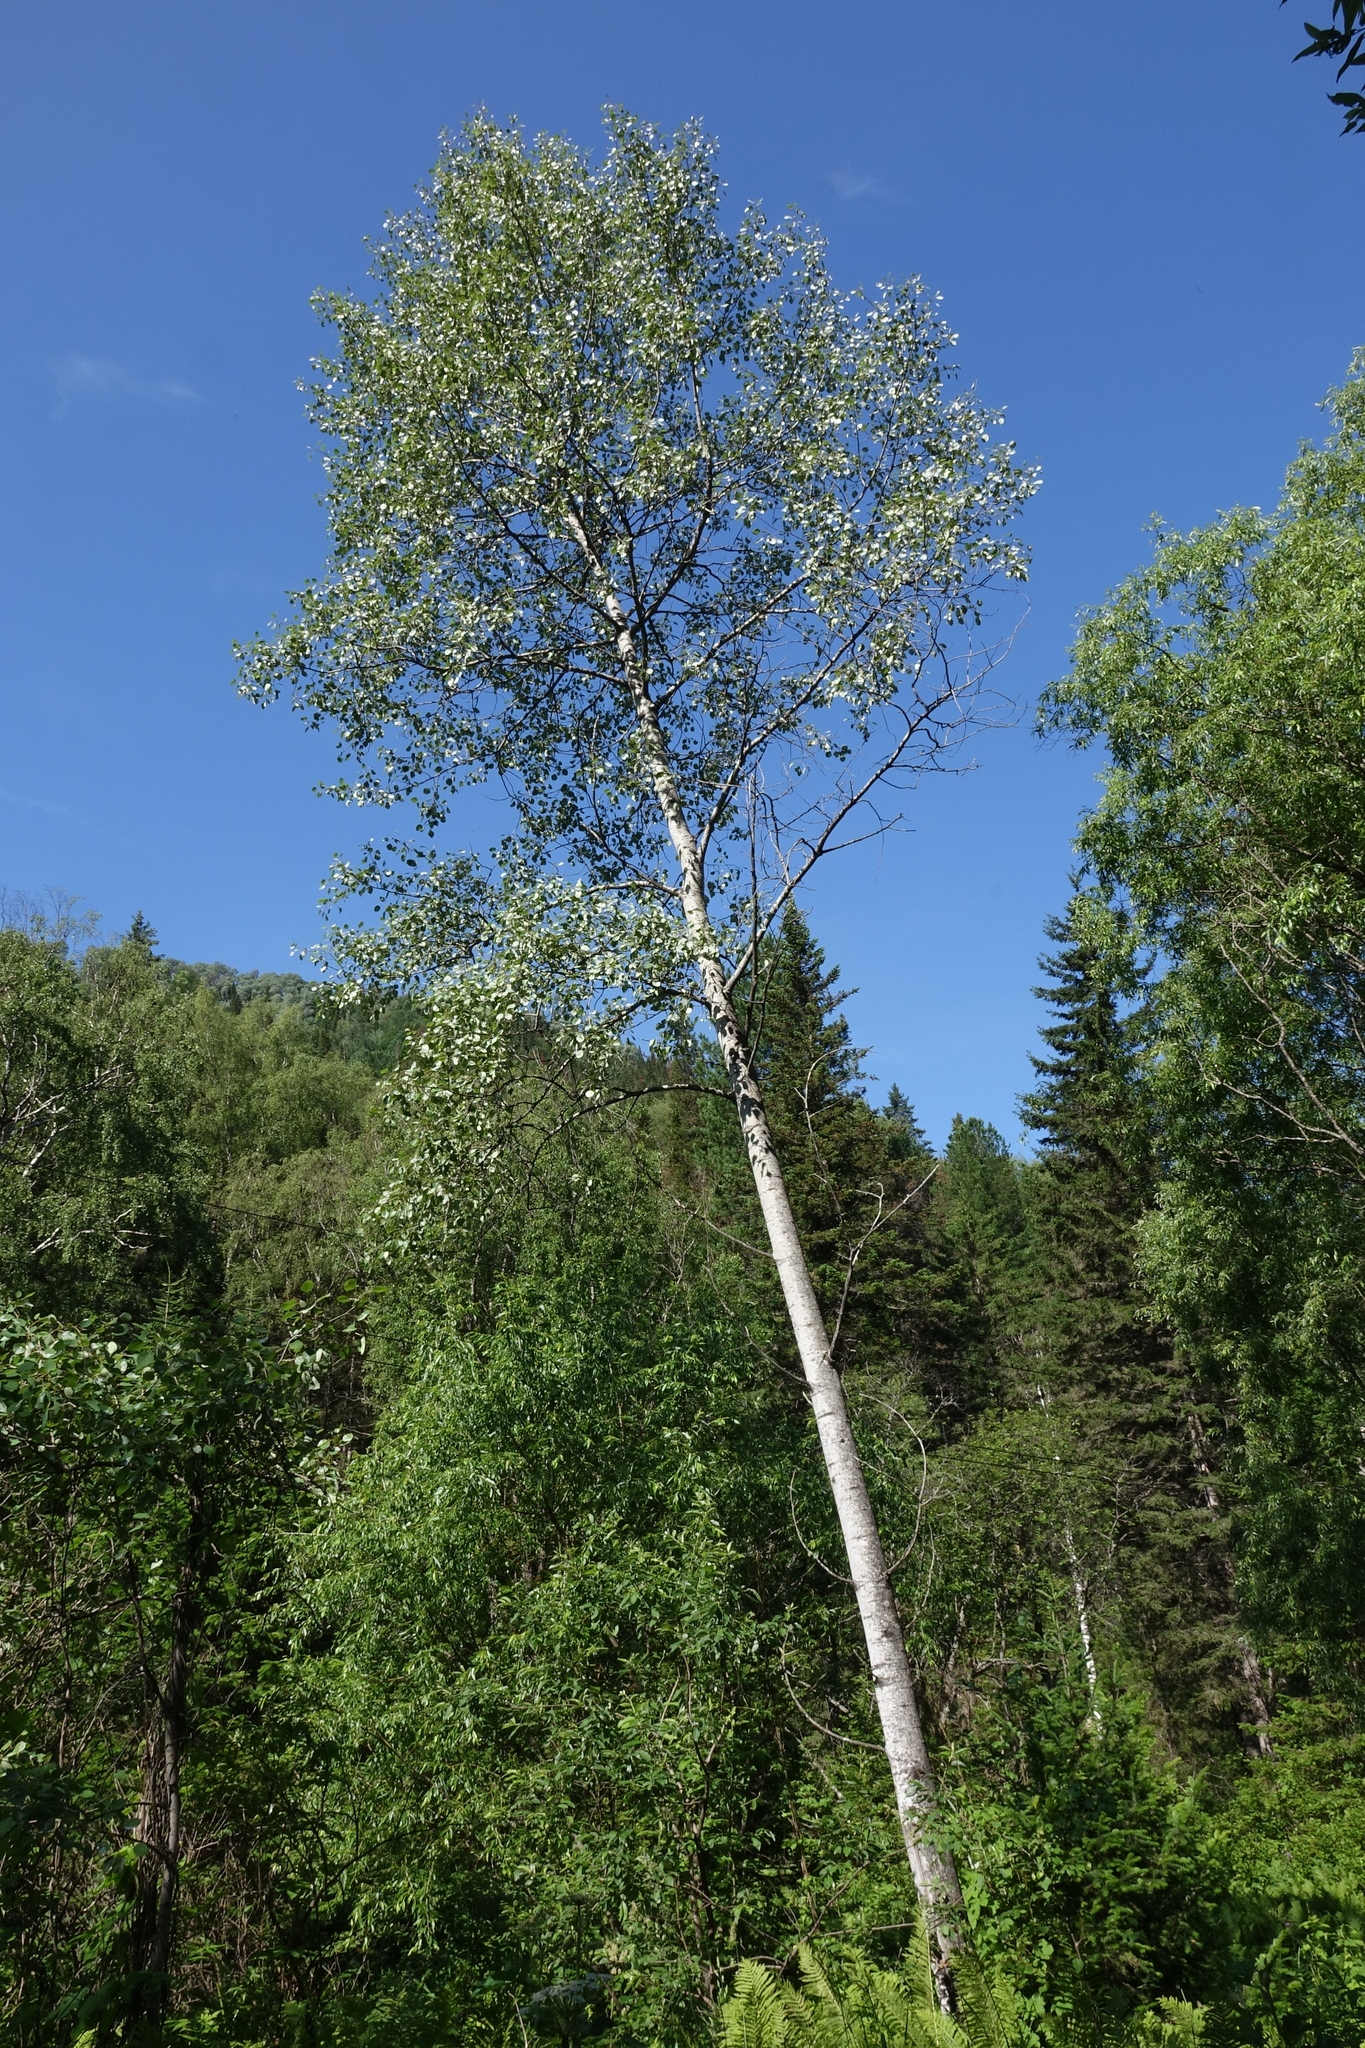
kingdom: Plantae
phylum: Tracheophyta
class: Magnoliopsida
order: Malpighiales
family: Salicaceae
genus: Populus
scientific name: Populus tremula
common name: European aspen
